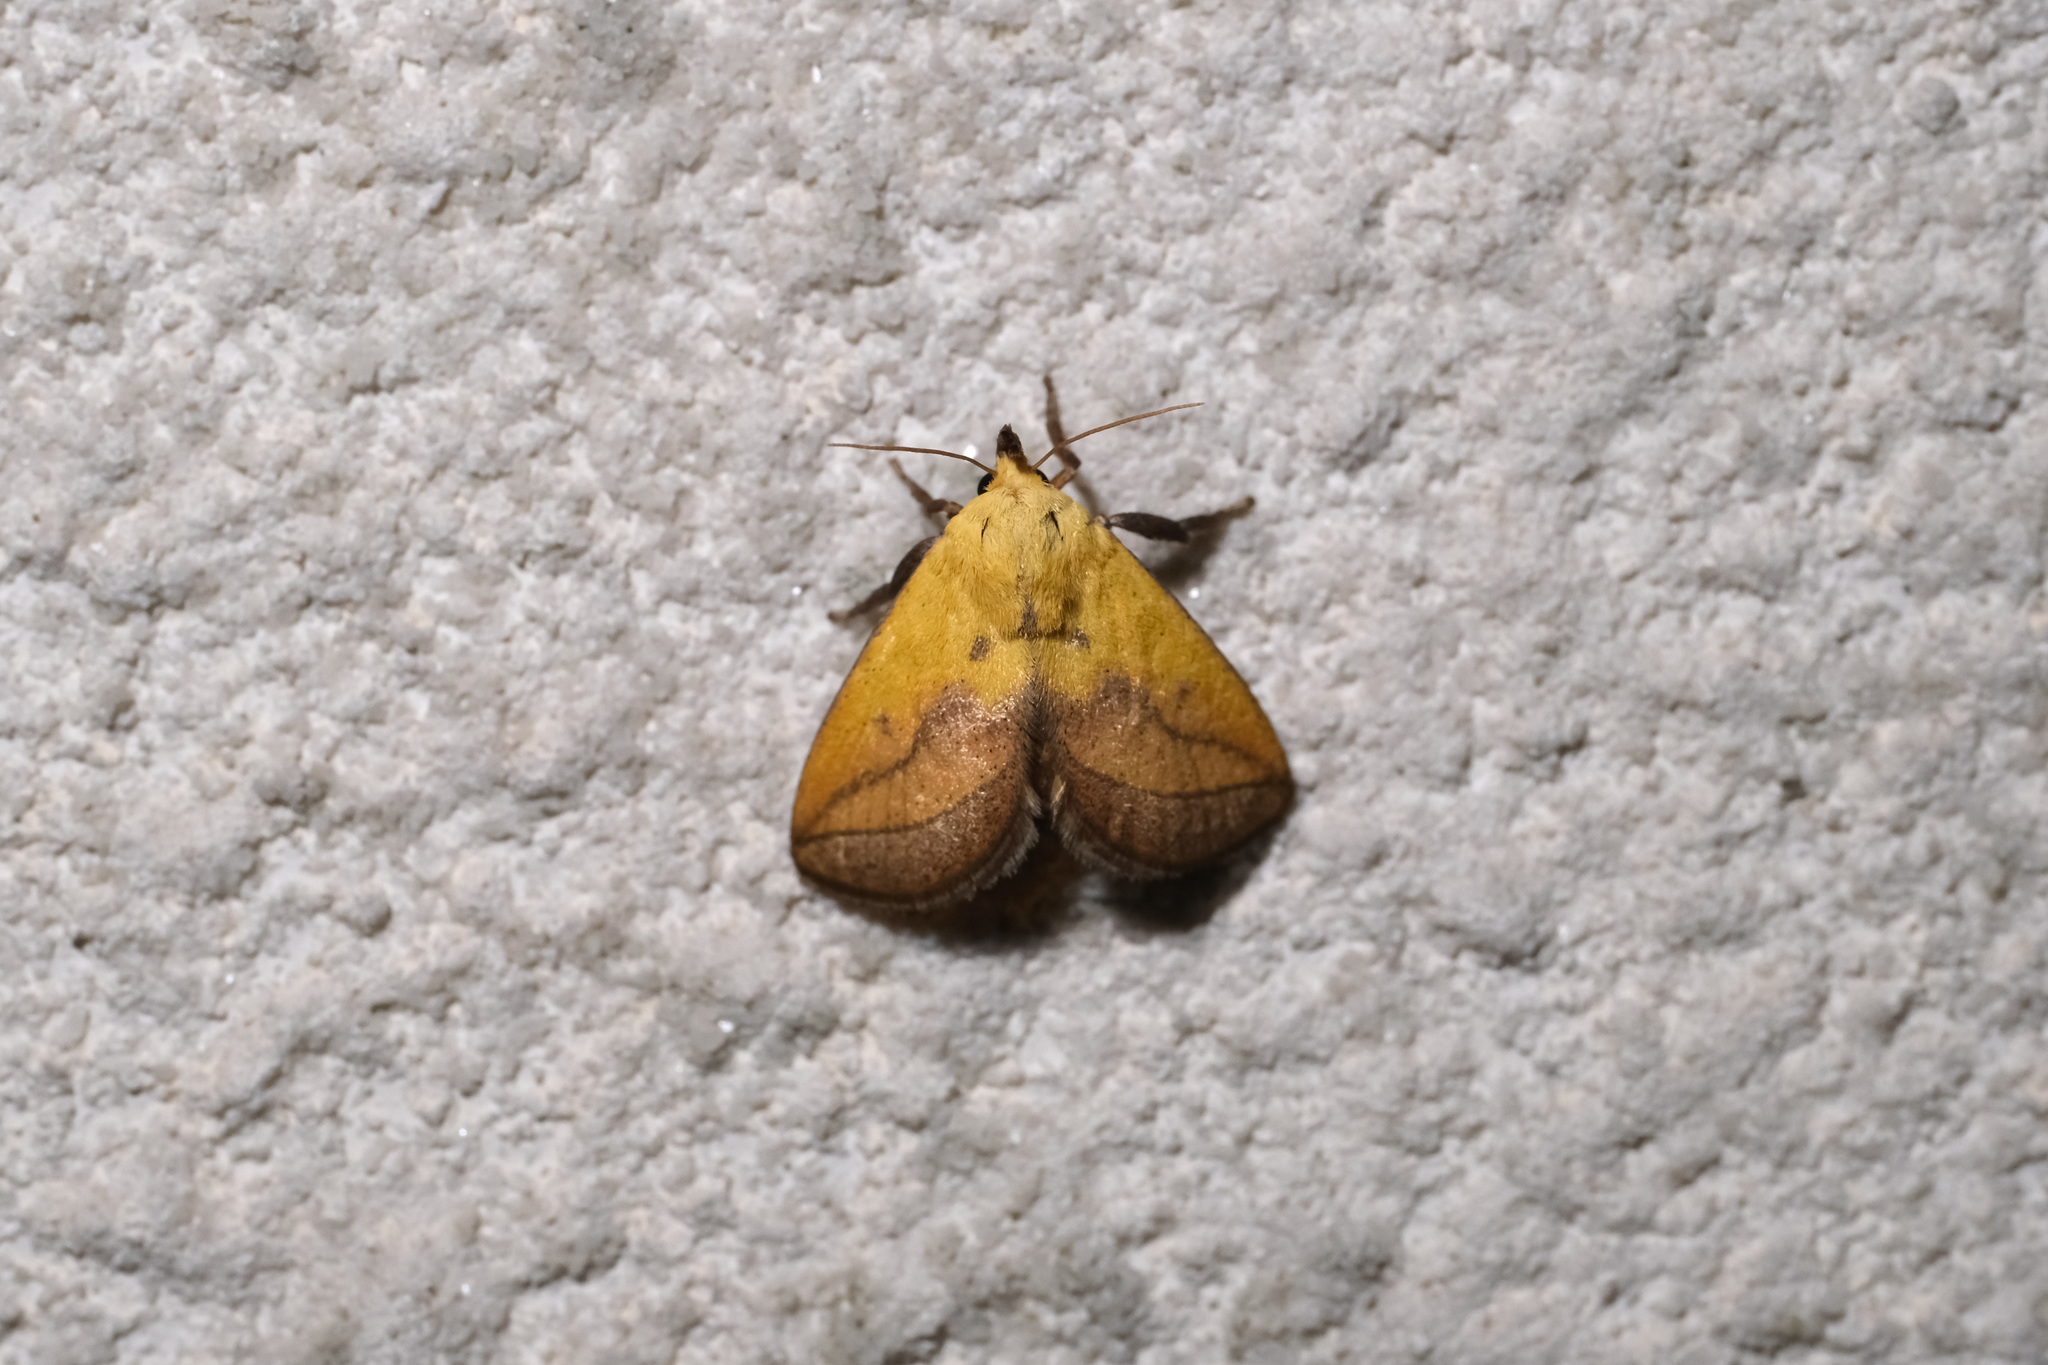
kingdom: Animalia
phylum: Arthropoda
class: Insecta
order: Lepidoptera
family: Limacodidae
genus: Monema
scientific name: Monema flavescens
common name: Oriental moth
